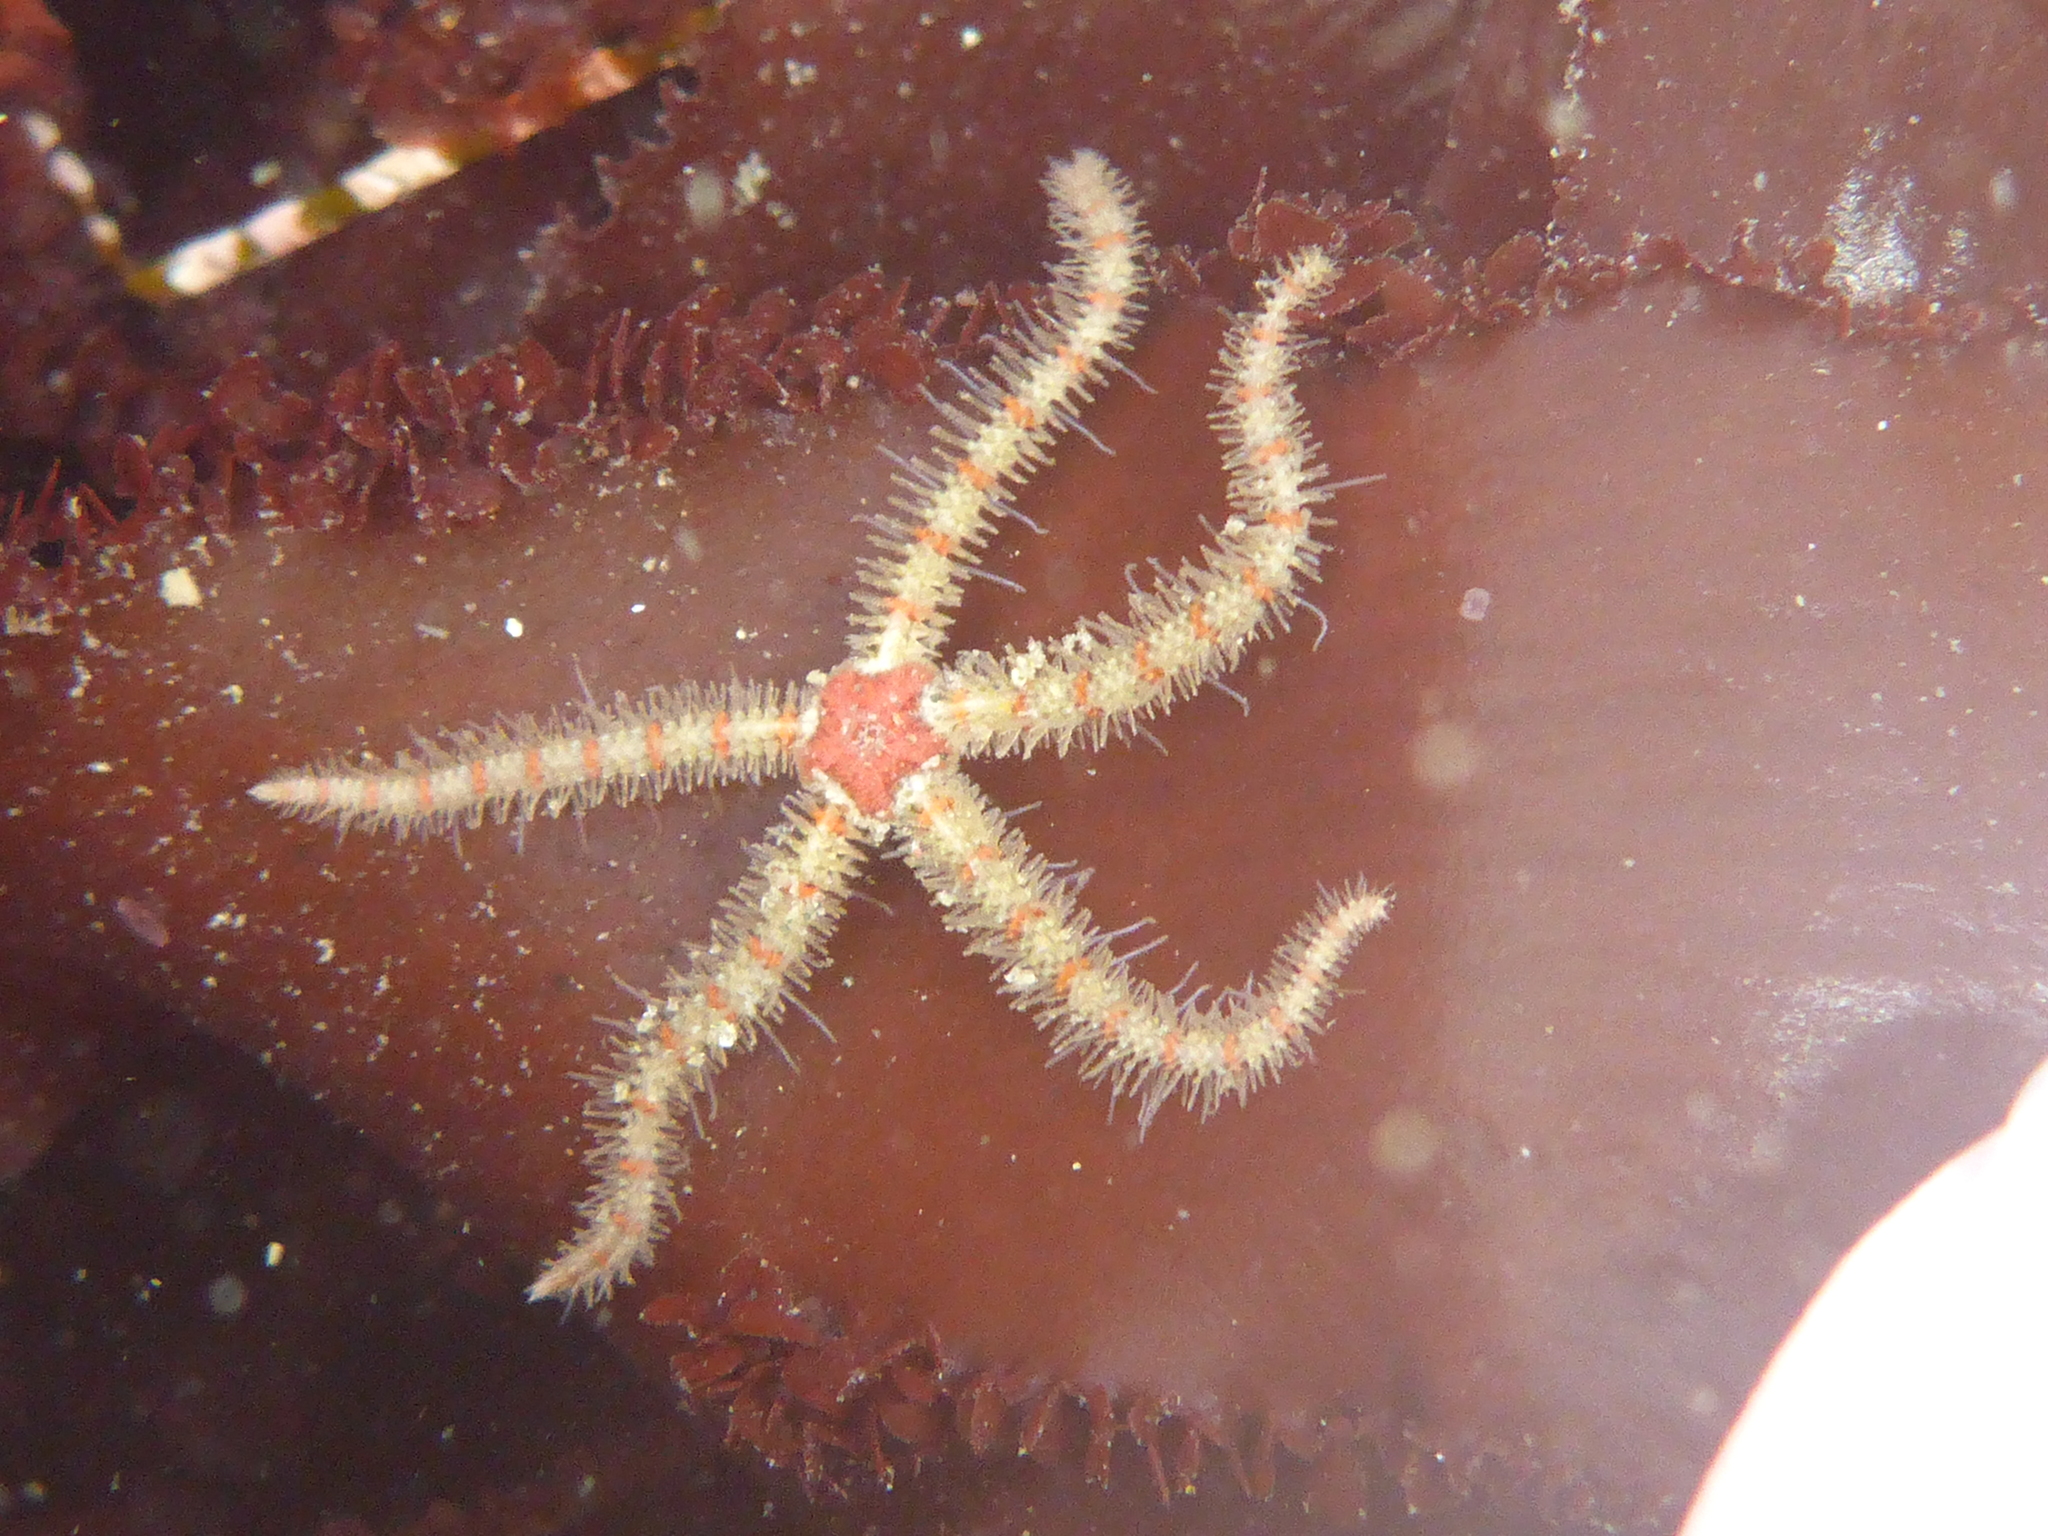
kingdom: Animalia
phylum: Echinodermata
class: Ophiuroidea
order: Amphilepidida
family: Ophiotrichidae
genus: Ophiothrix
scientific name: Ophiothrix spiculata
